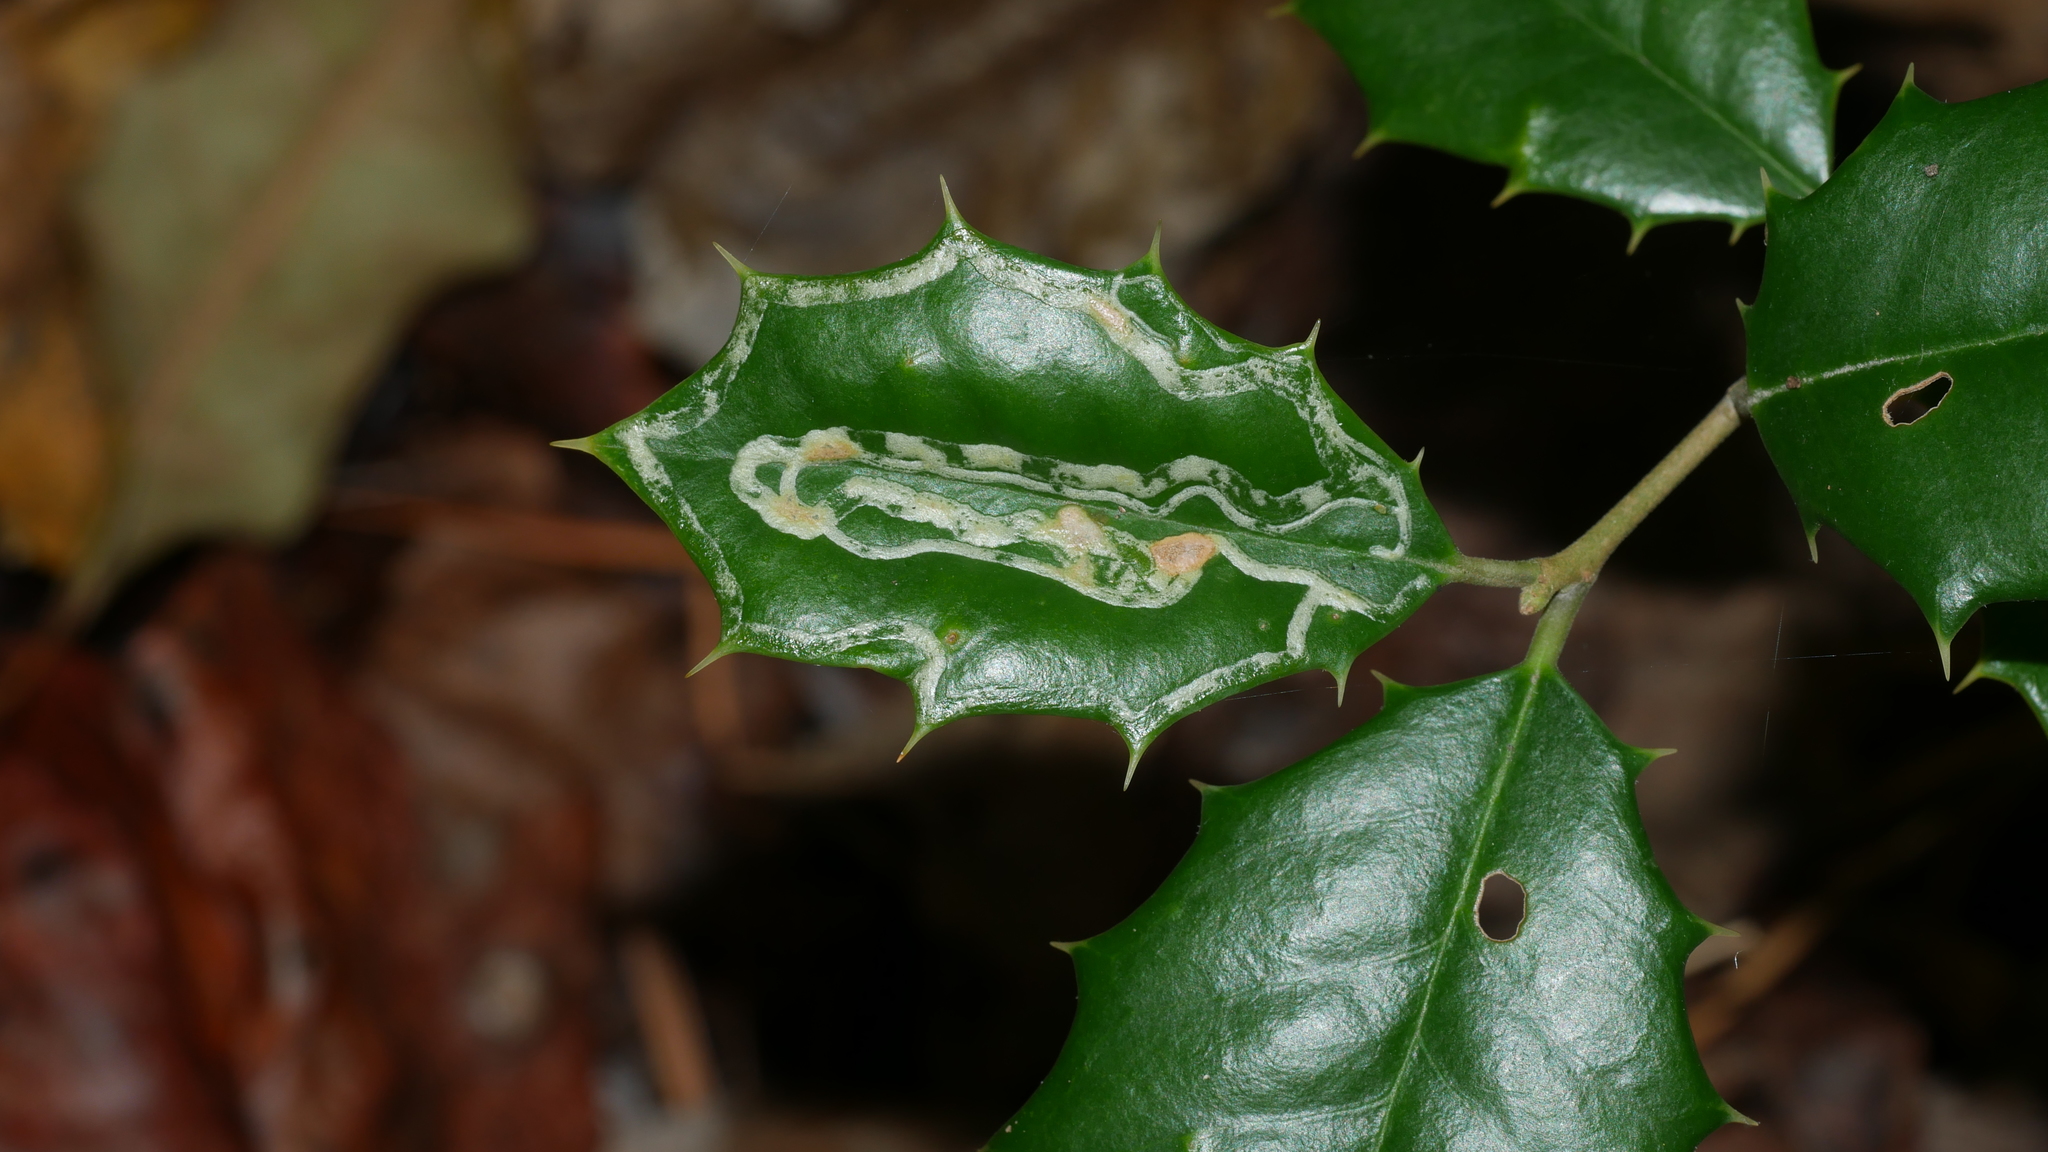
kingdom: Animalia
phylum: Arthropoda
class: Insecta
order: Diptera
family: Agromyzidae
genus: Phytomyza
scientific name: Phytomyza opacae
